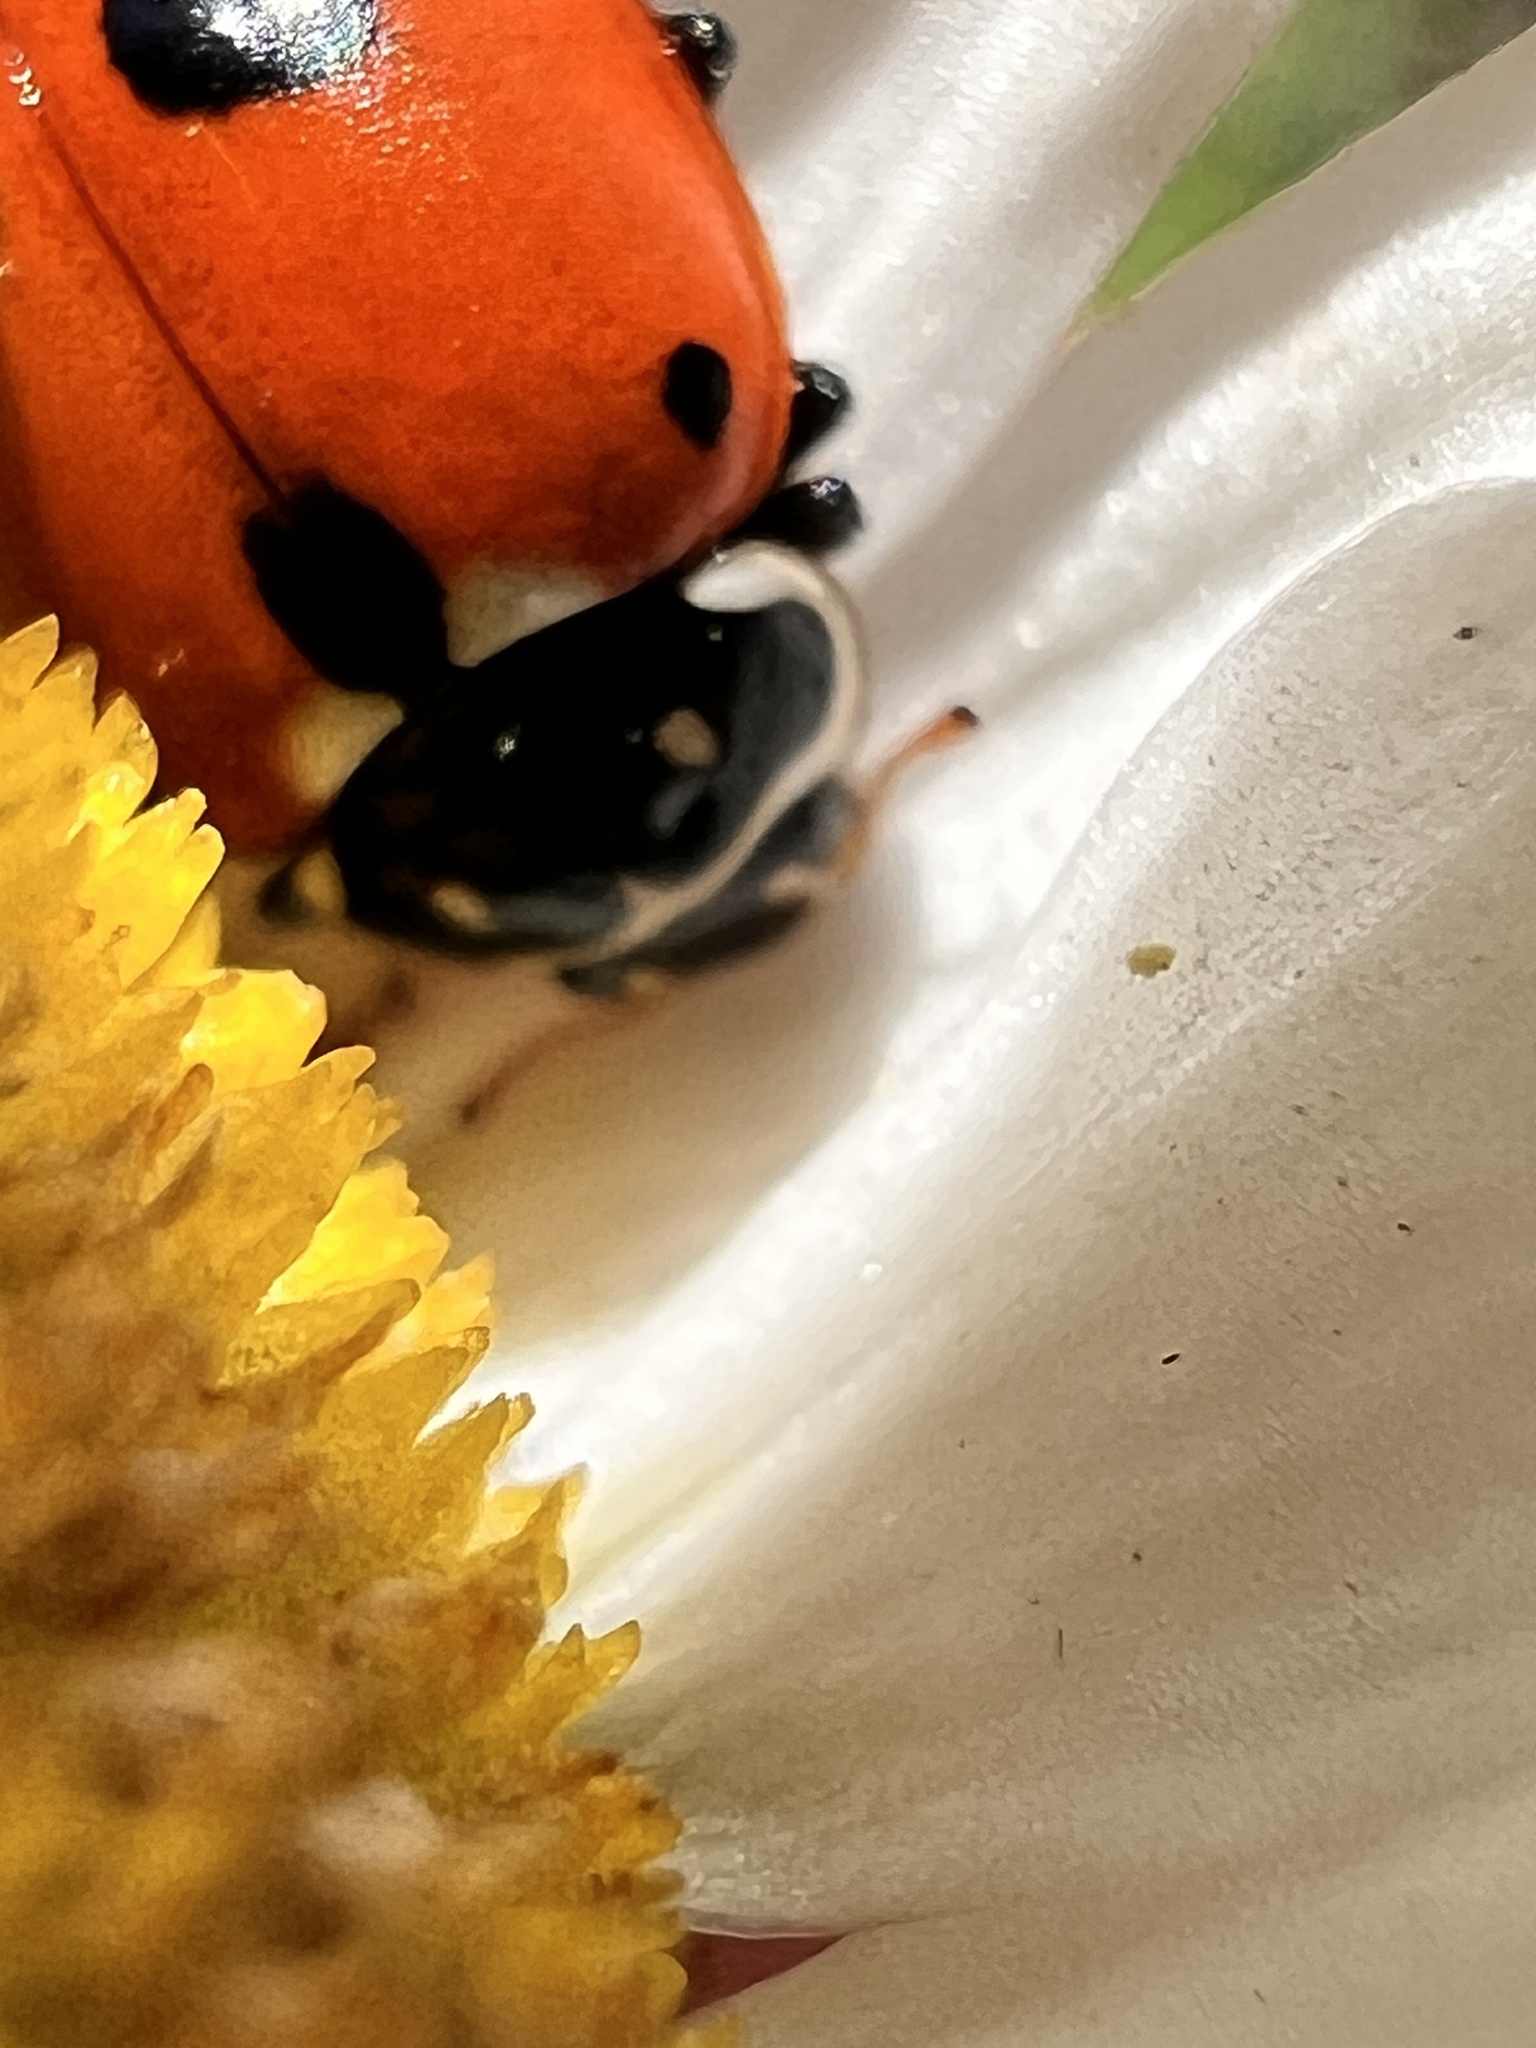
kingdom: Animalia
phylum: Arthropoda
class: Insecta
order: Coleoptera
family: Coccinellidae
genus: Hippodamia
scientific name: Hippodamia variegata
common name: Ladybird beetle
